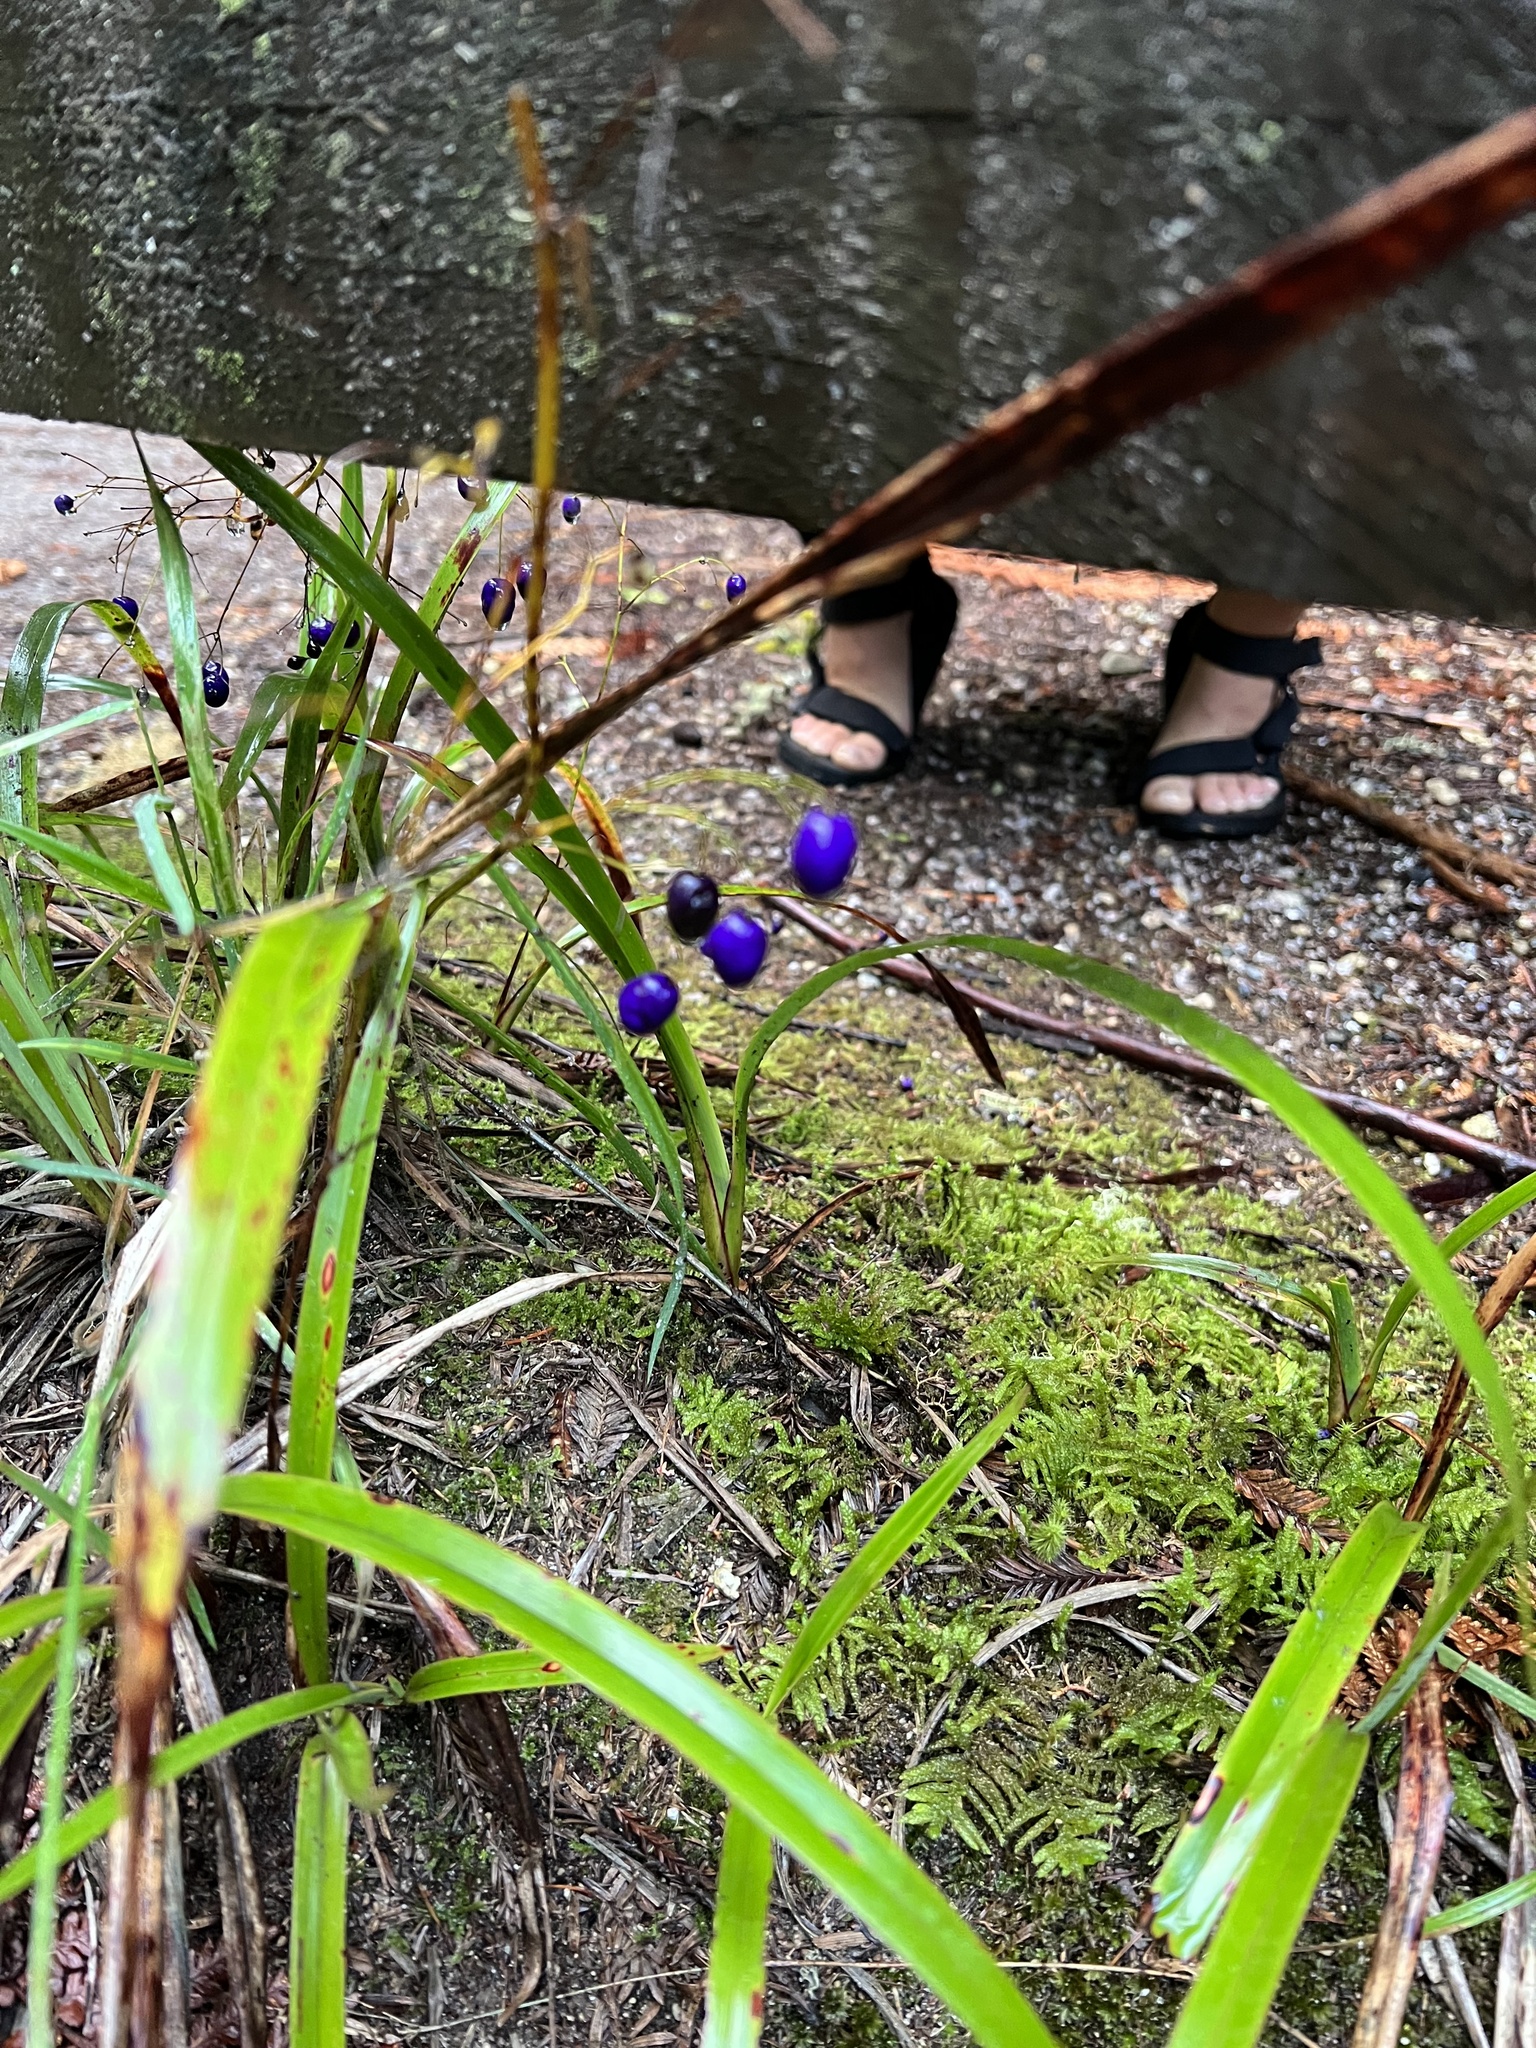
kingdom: Plantae
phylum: Tracheophyta
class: Liliopsida
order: Asparagales
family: Asphodelaceae
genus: Dianella
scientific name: Dianella nigra
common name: New zealand-blueberry
